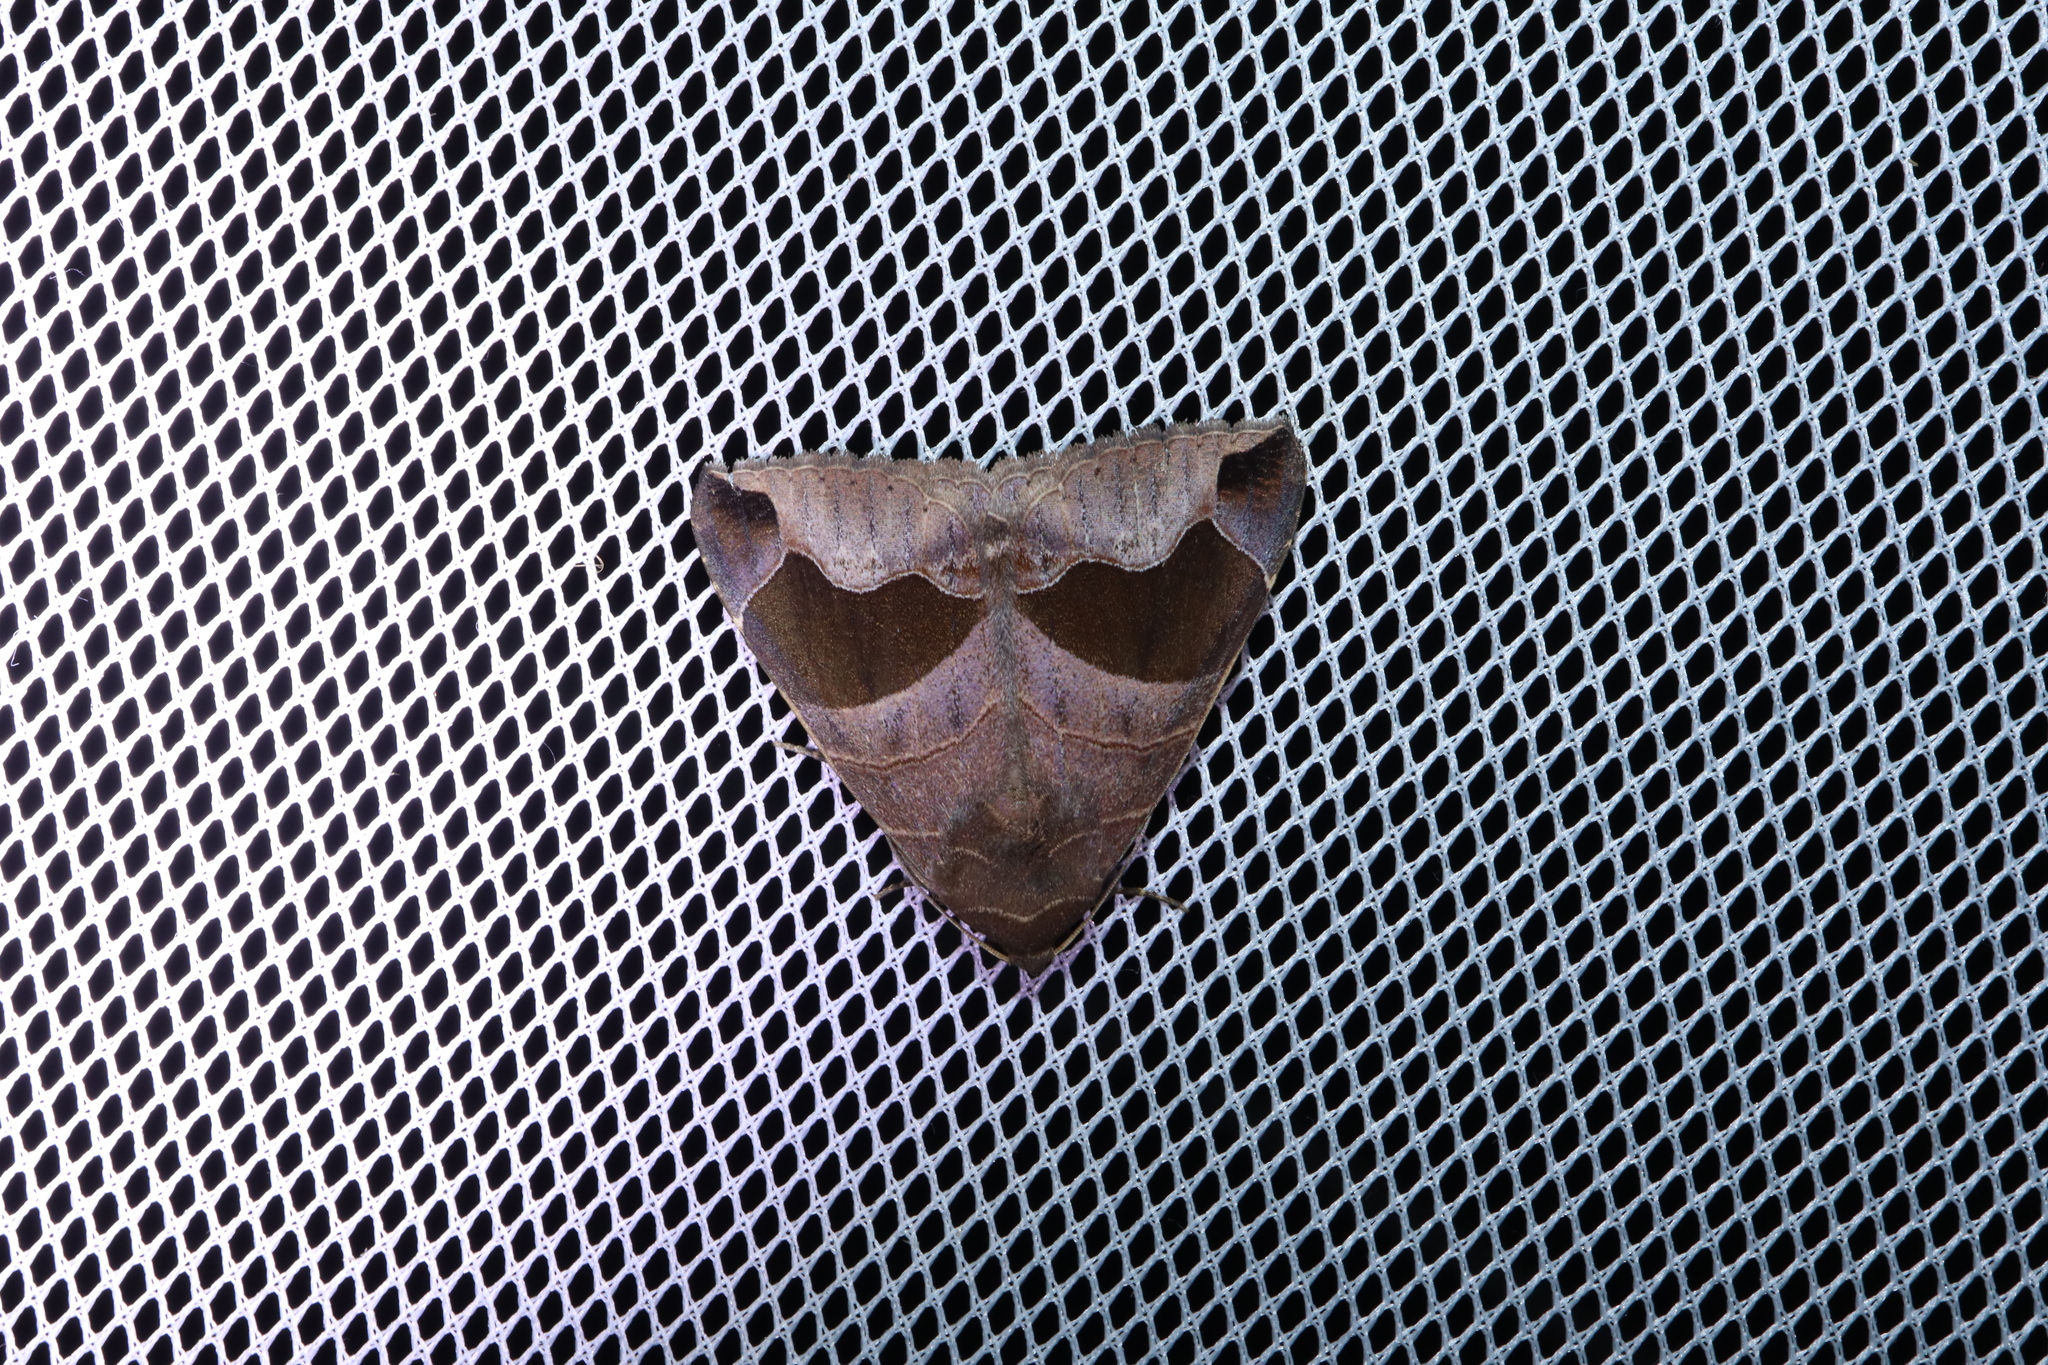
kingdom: Animalia
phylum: Arthropoda
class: Insecta
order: Lepidoptera
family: Erebidae
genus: Bastilla
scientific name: Bastilla solomonensis
